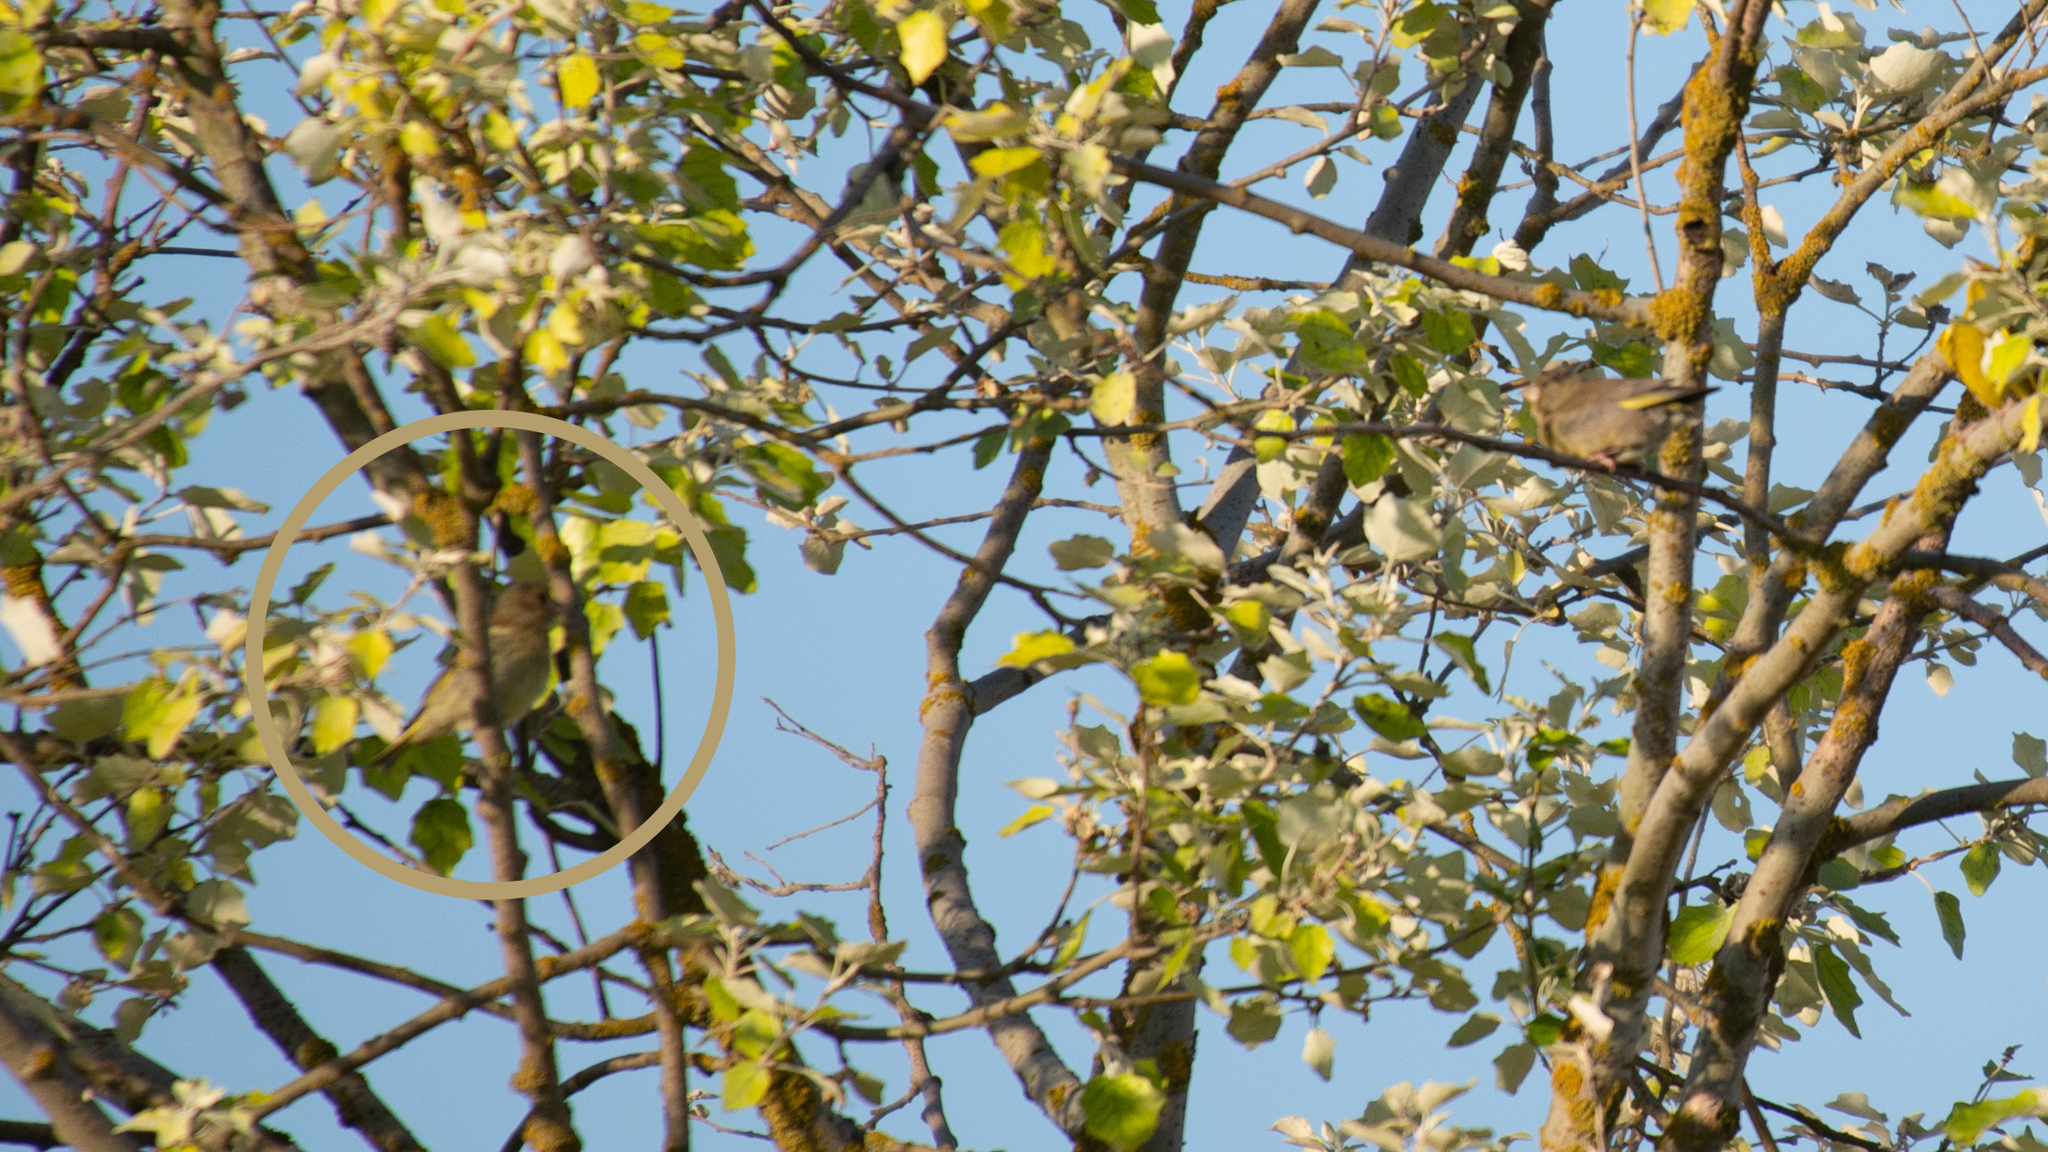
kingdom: Plantae
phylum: Tracheophyta
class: Liliopsida
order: Poales
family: Poaceae
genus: Chloris
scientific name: Chloris chloris
